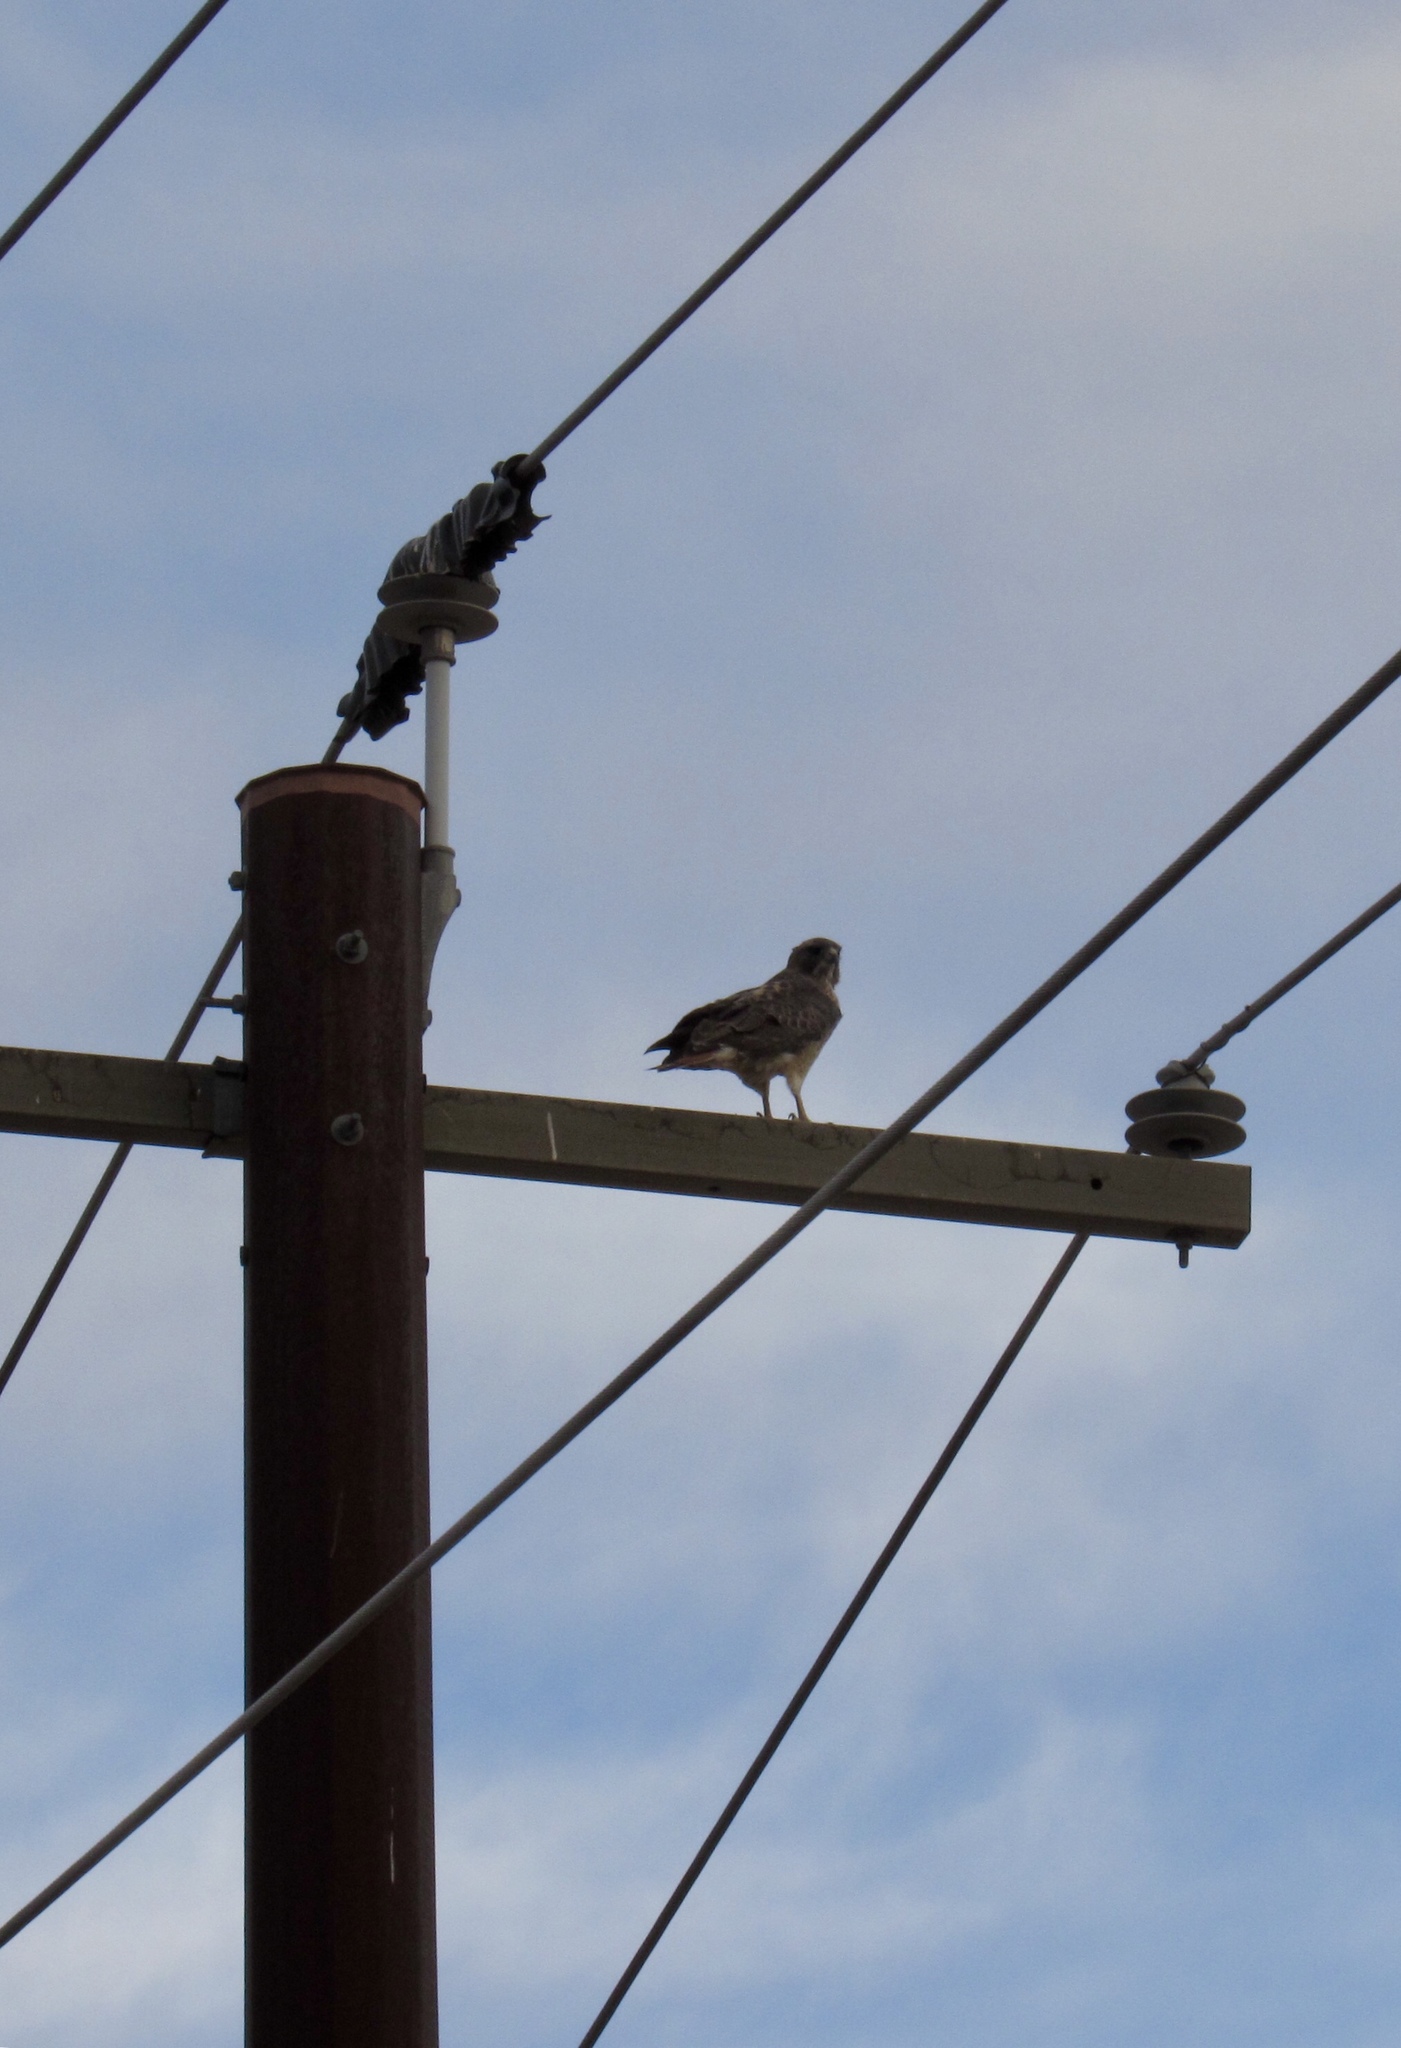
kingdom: Animalia
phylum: Chordata
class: Aves
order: Accipitriformes
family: Accipitridae
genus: Buteo
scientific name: Buteo jamaicensis
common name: Red-tailed hawk
